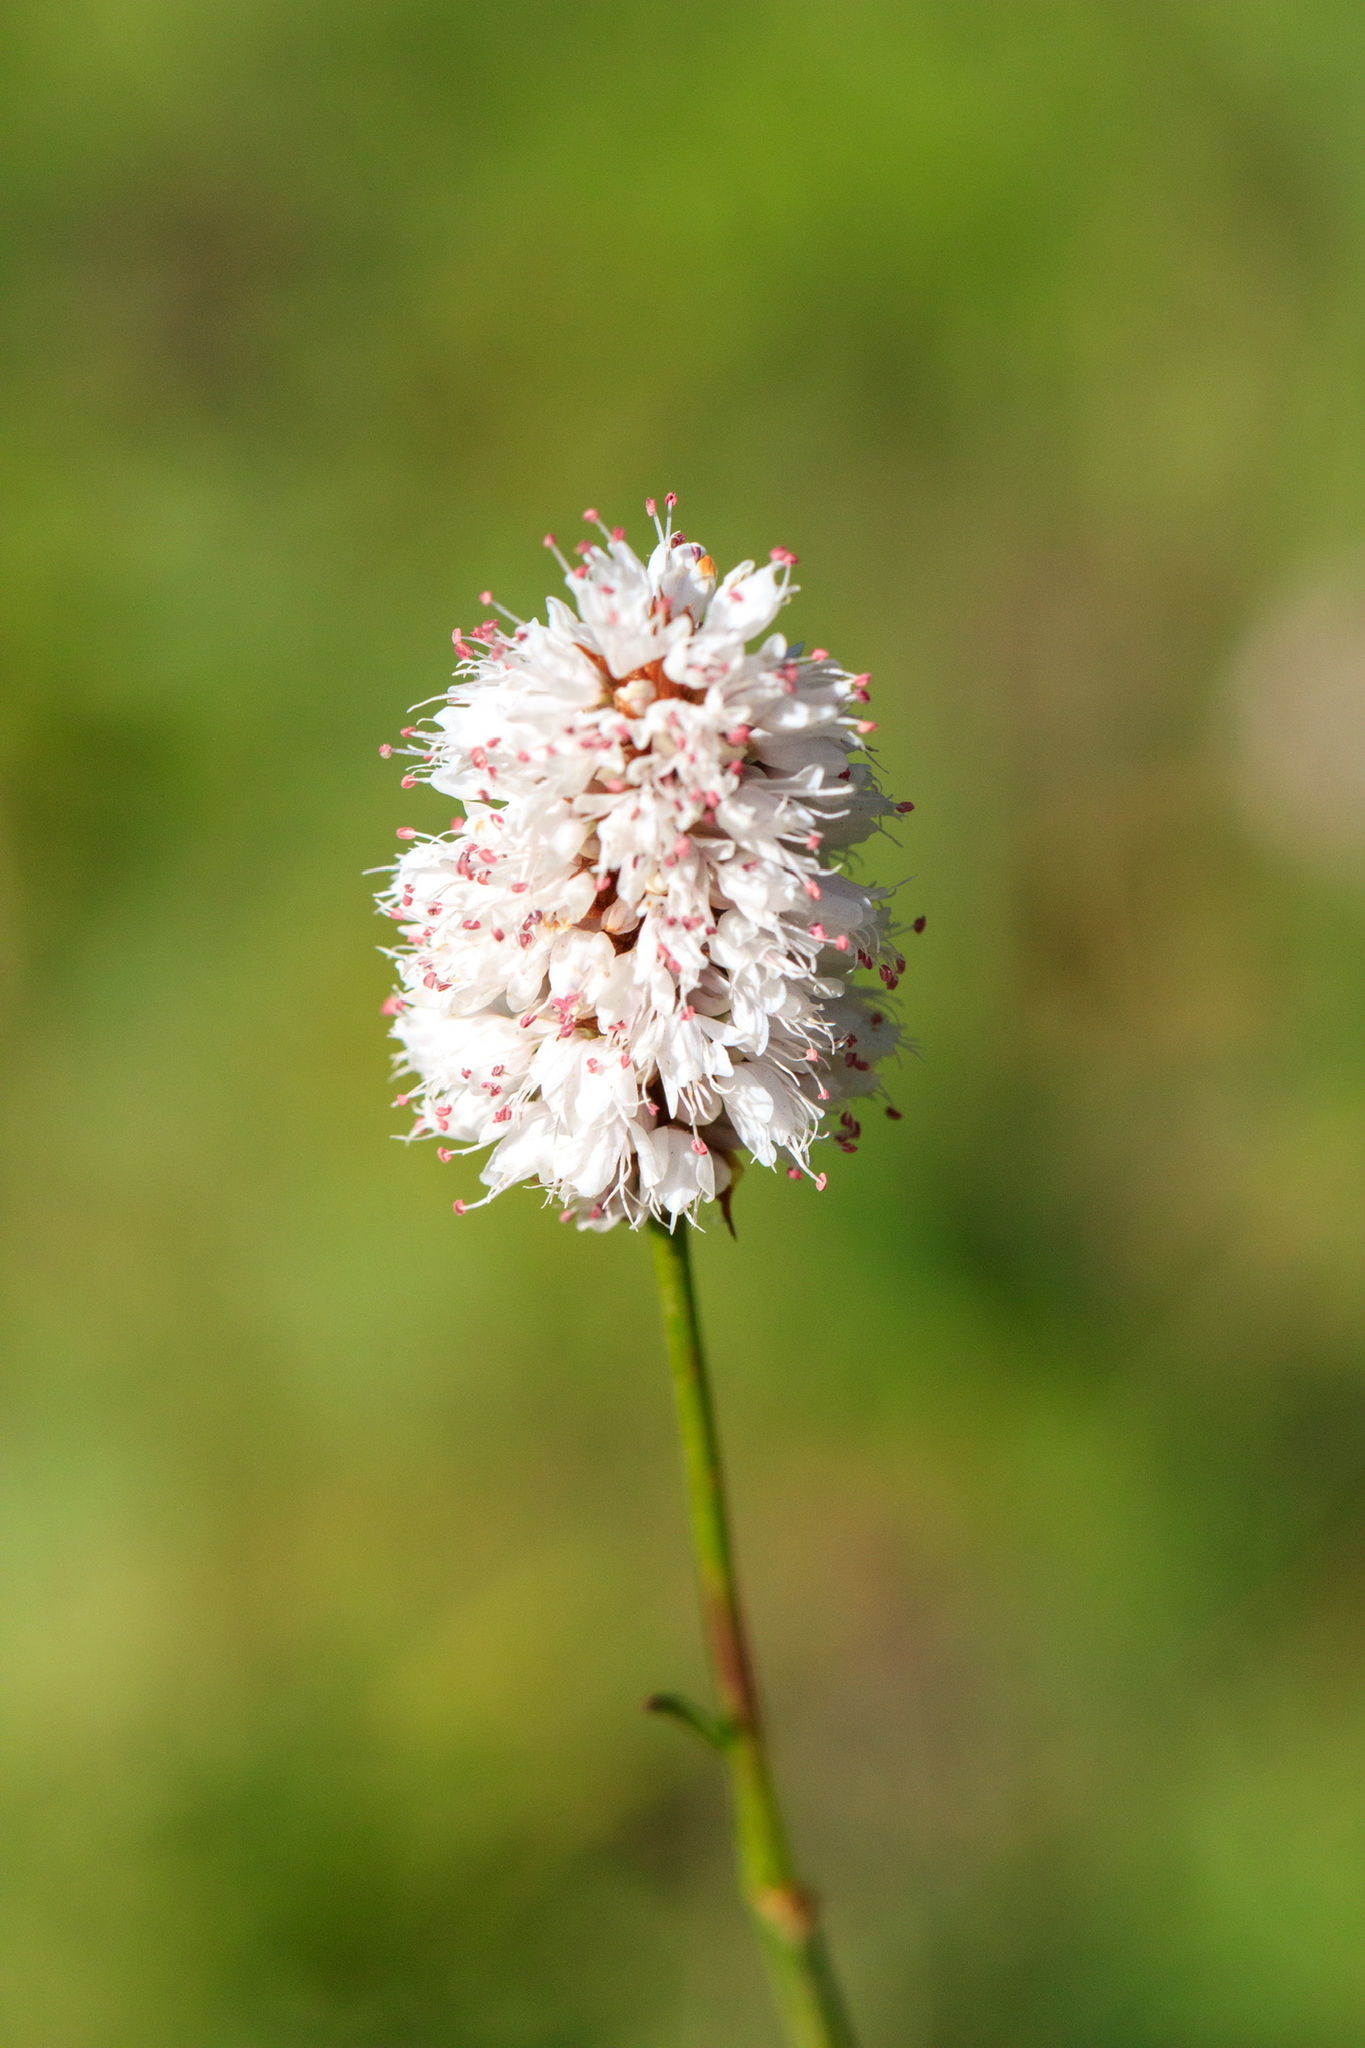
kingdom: Plantae
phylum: Tracheophyta
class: Magnoliopsida
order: Caryophyllales
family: Polygonaceae
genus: Bistorta
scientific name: Bistorta elliptica
